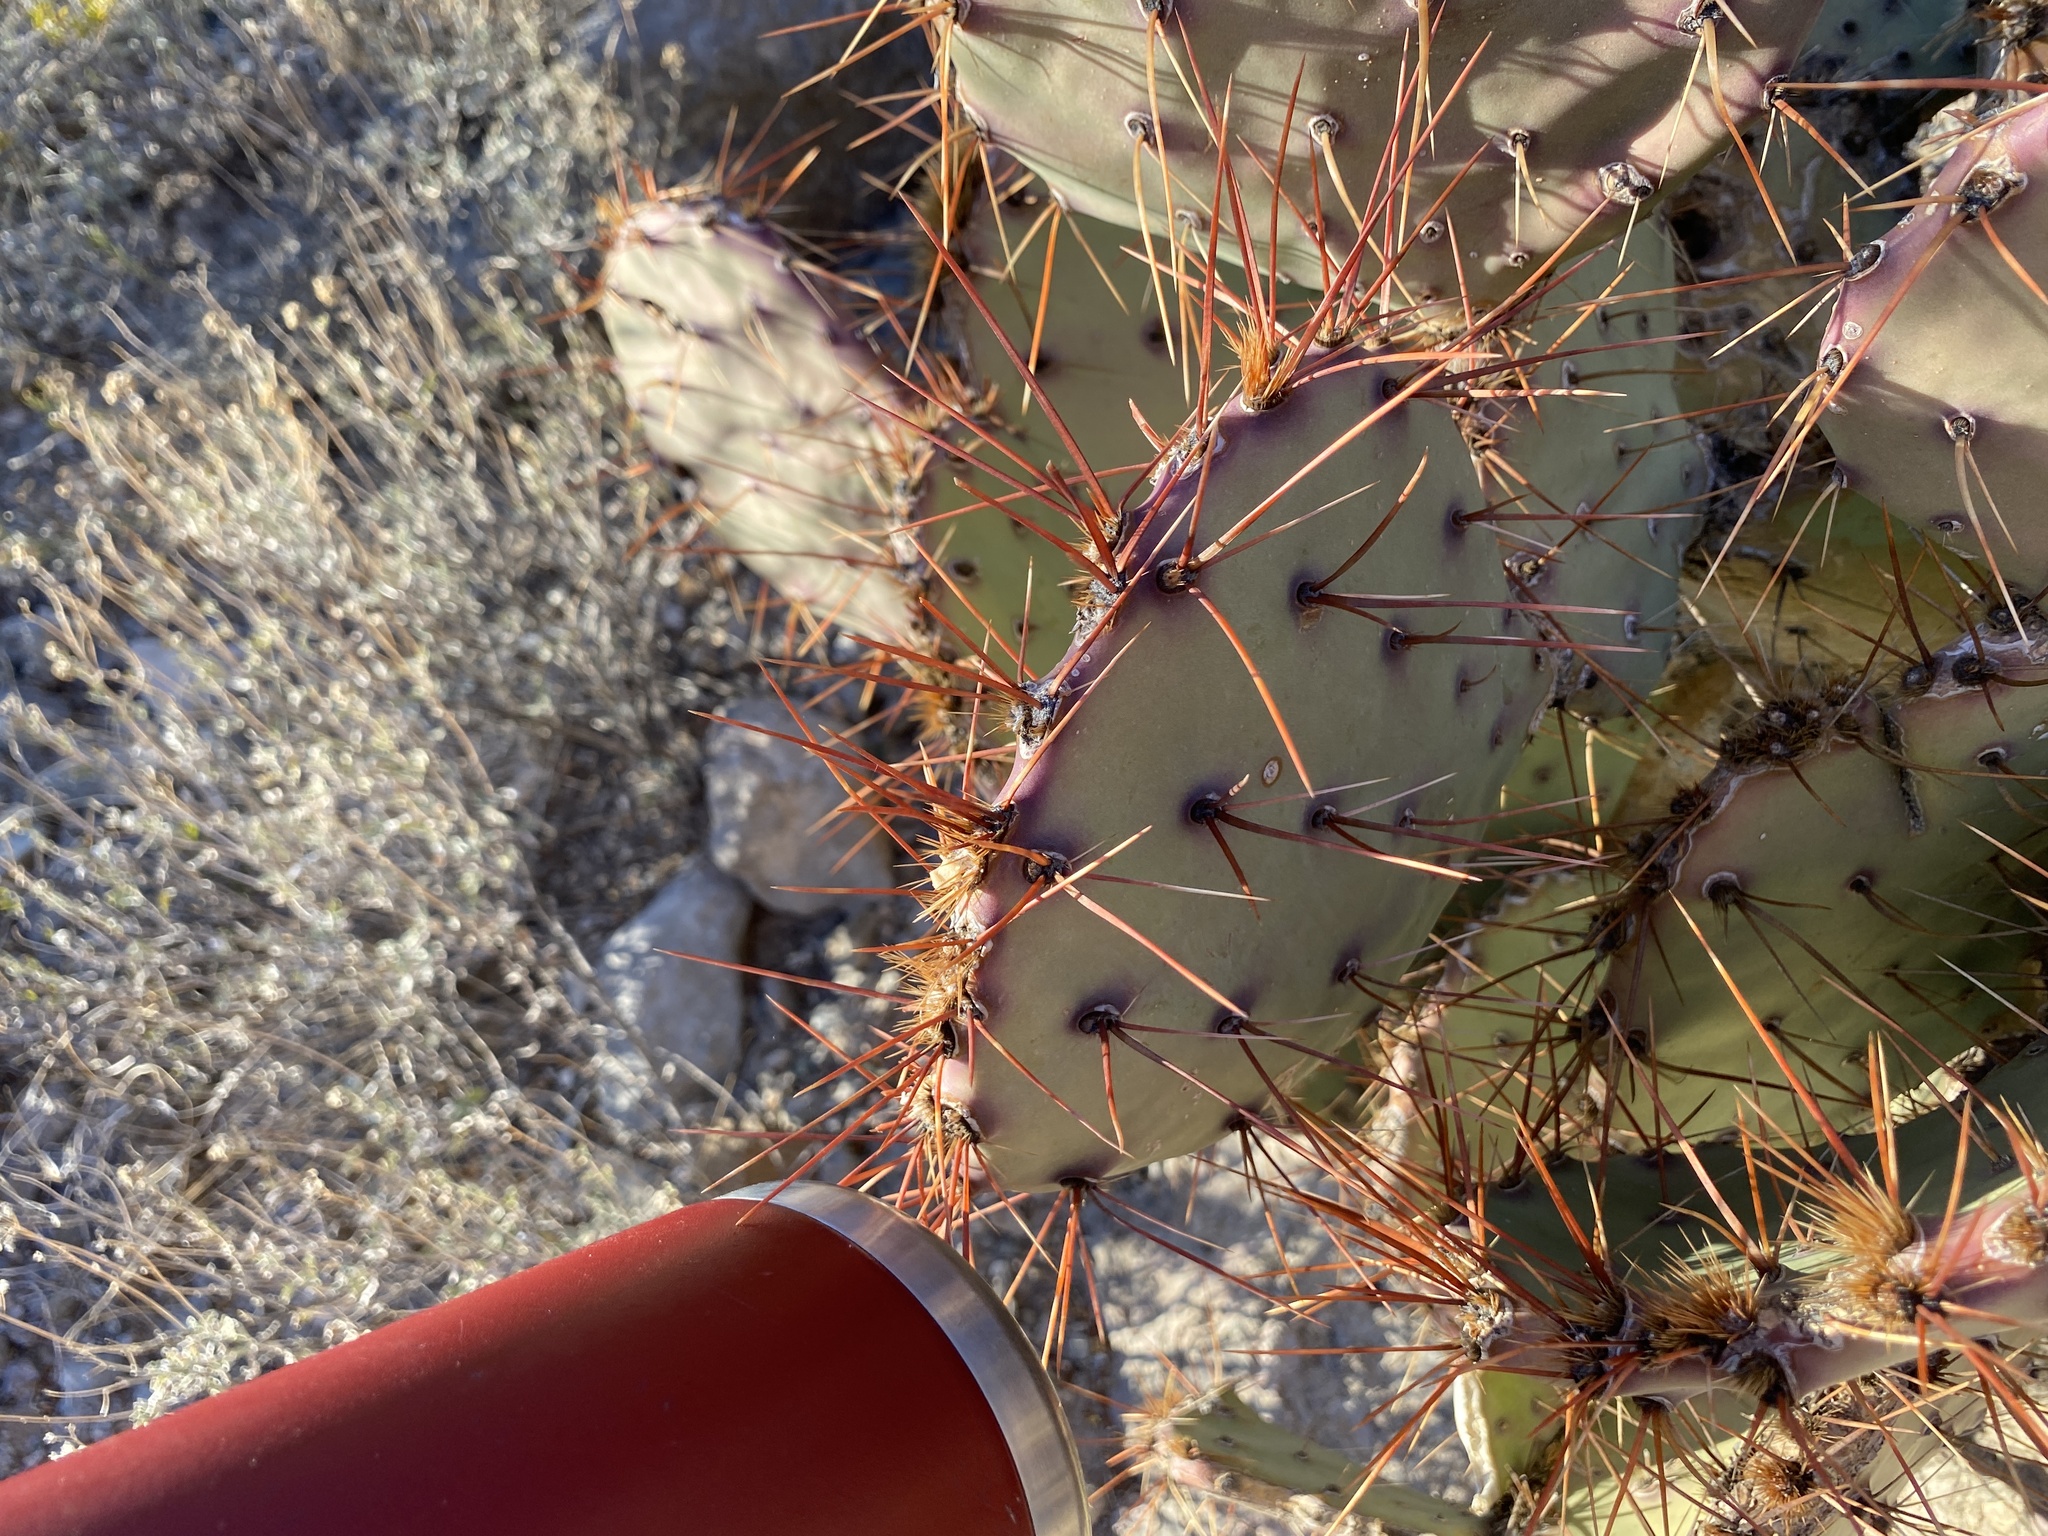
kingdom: Plantae
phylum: Tracheophyta
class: Magnoliopsida
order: Caryophyllales
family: Cactaceae
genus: Opuntia
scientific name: Opuntia macrocentra
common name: Purple prickly-pear
